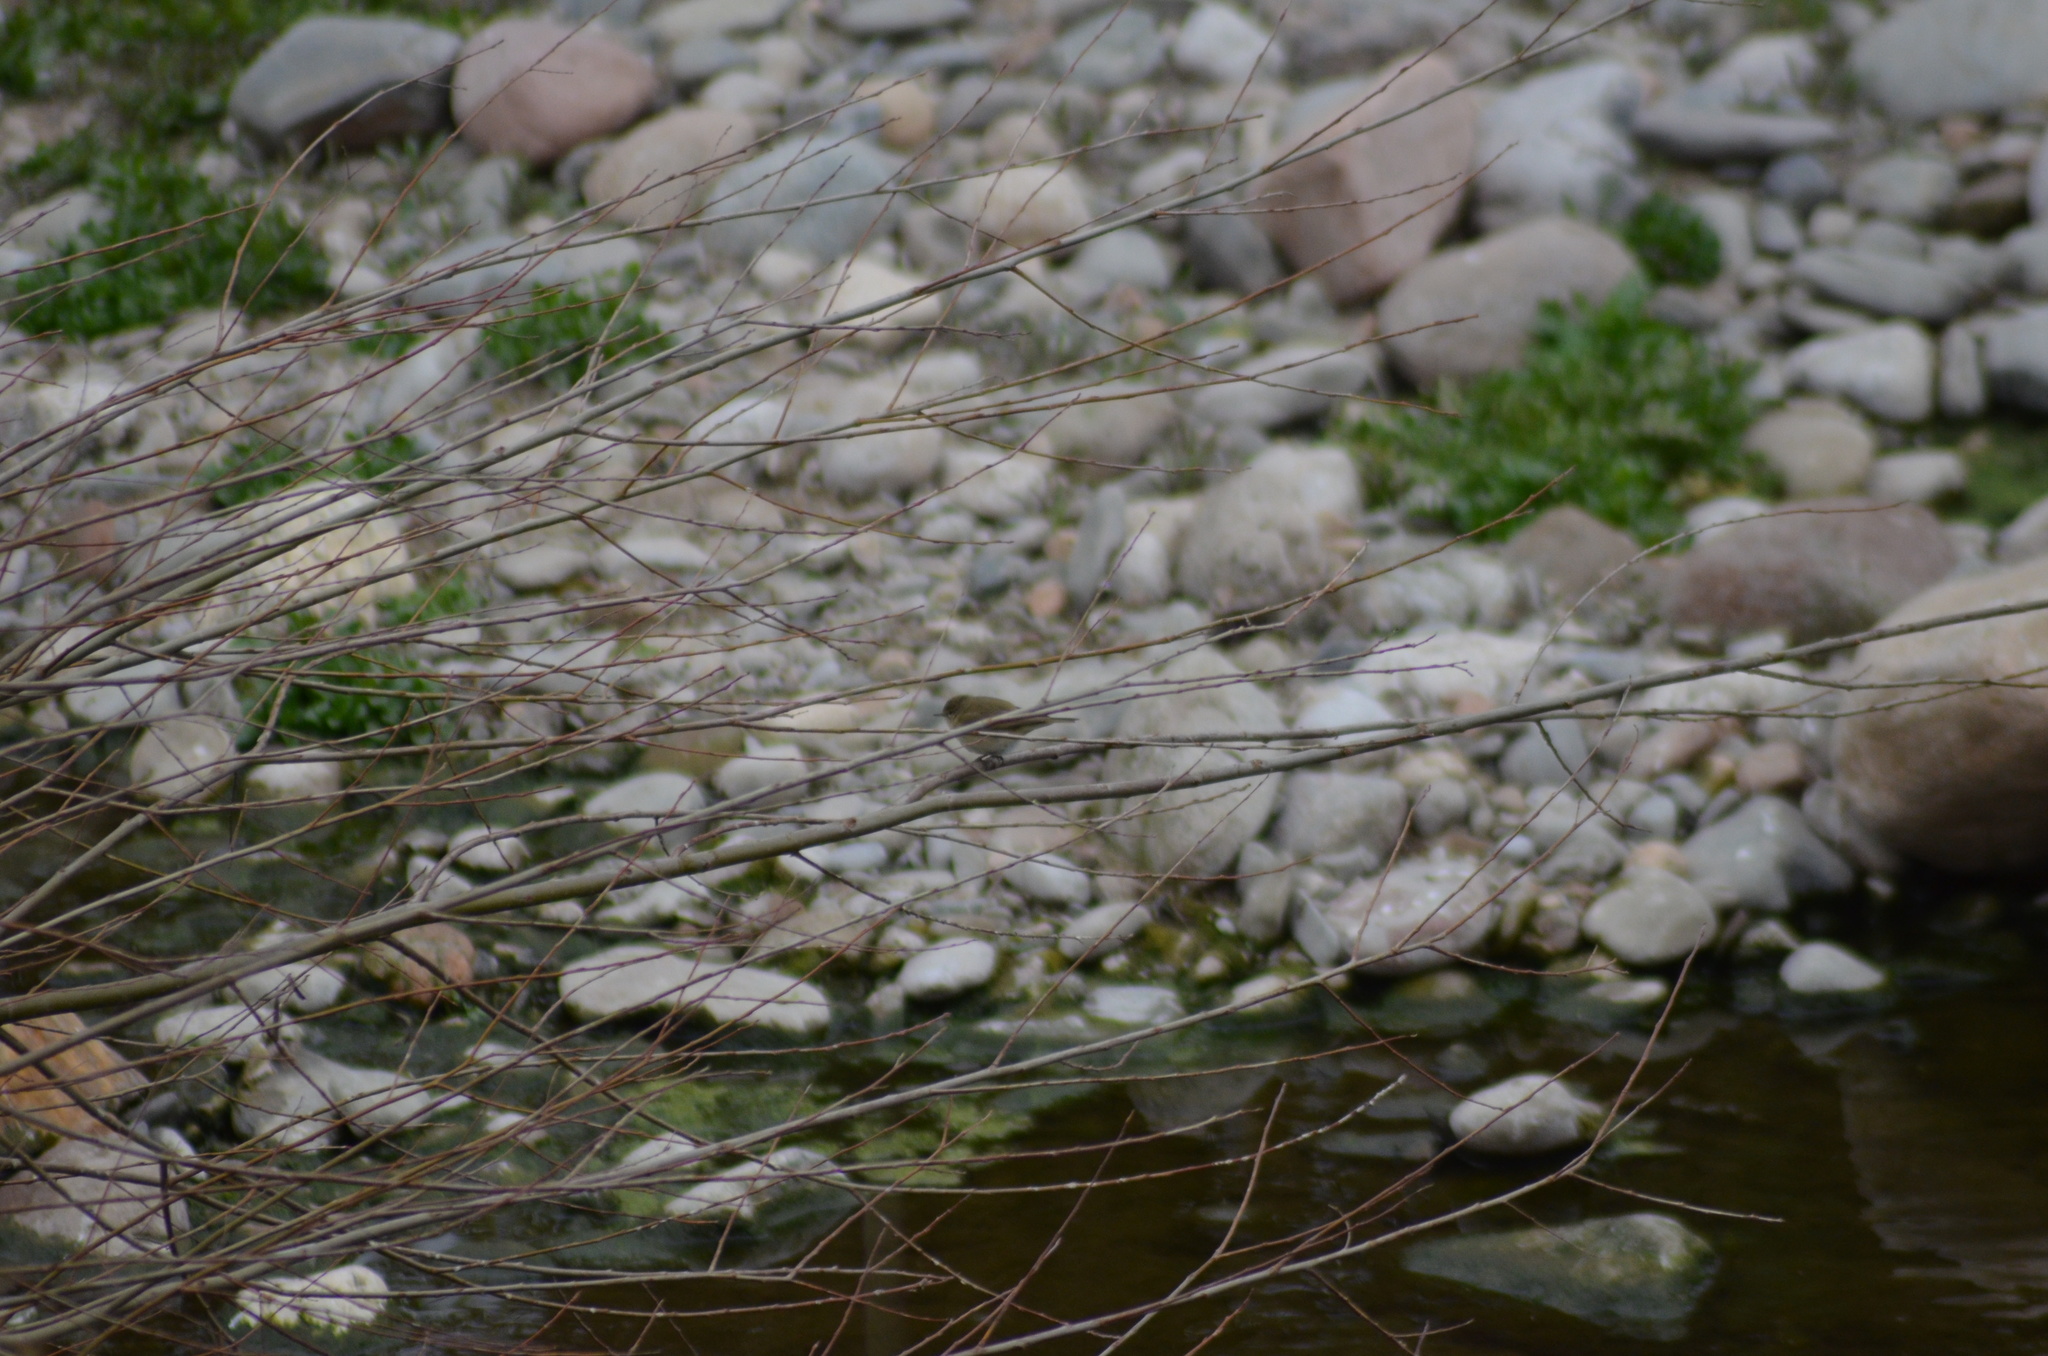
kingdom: Animalia
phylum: Chordata
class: Aves
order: Passeriformes
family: Phylloscopidae
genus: Phylloscopus
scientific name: Phylloscopus collybita
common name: Common chiffchaff
